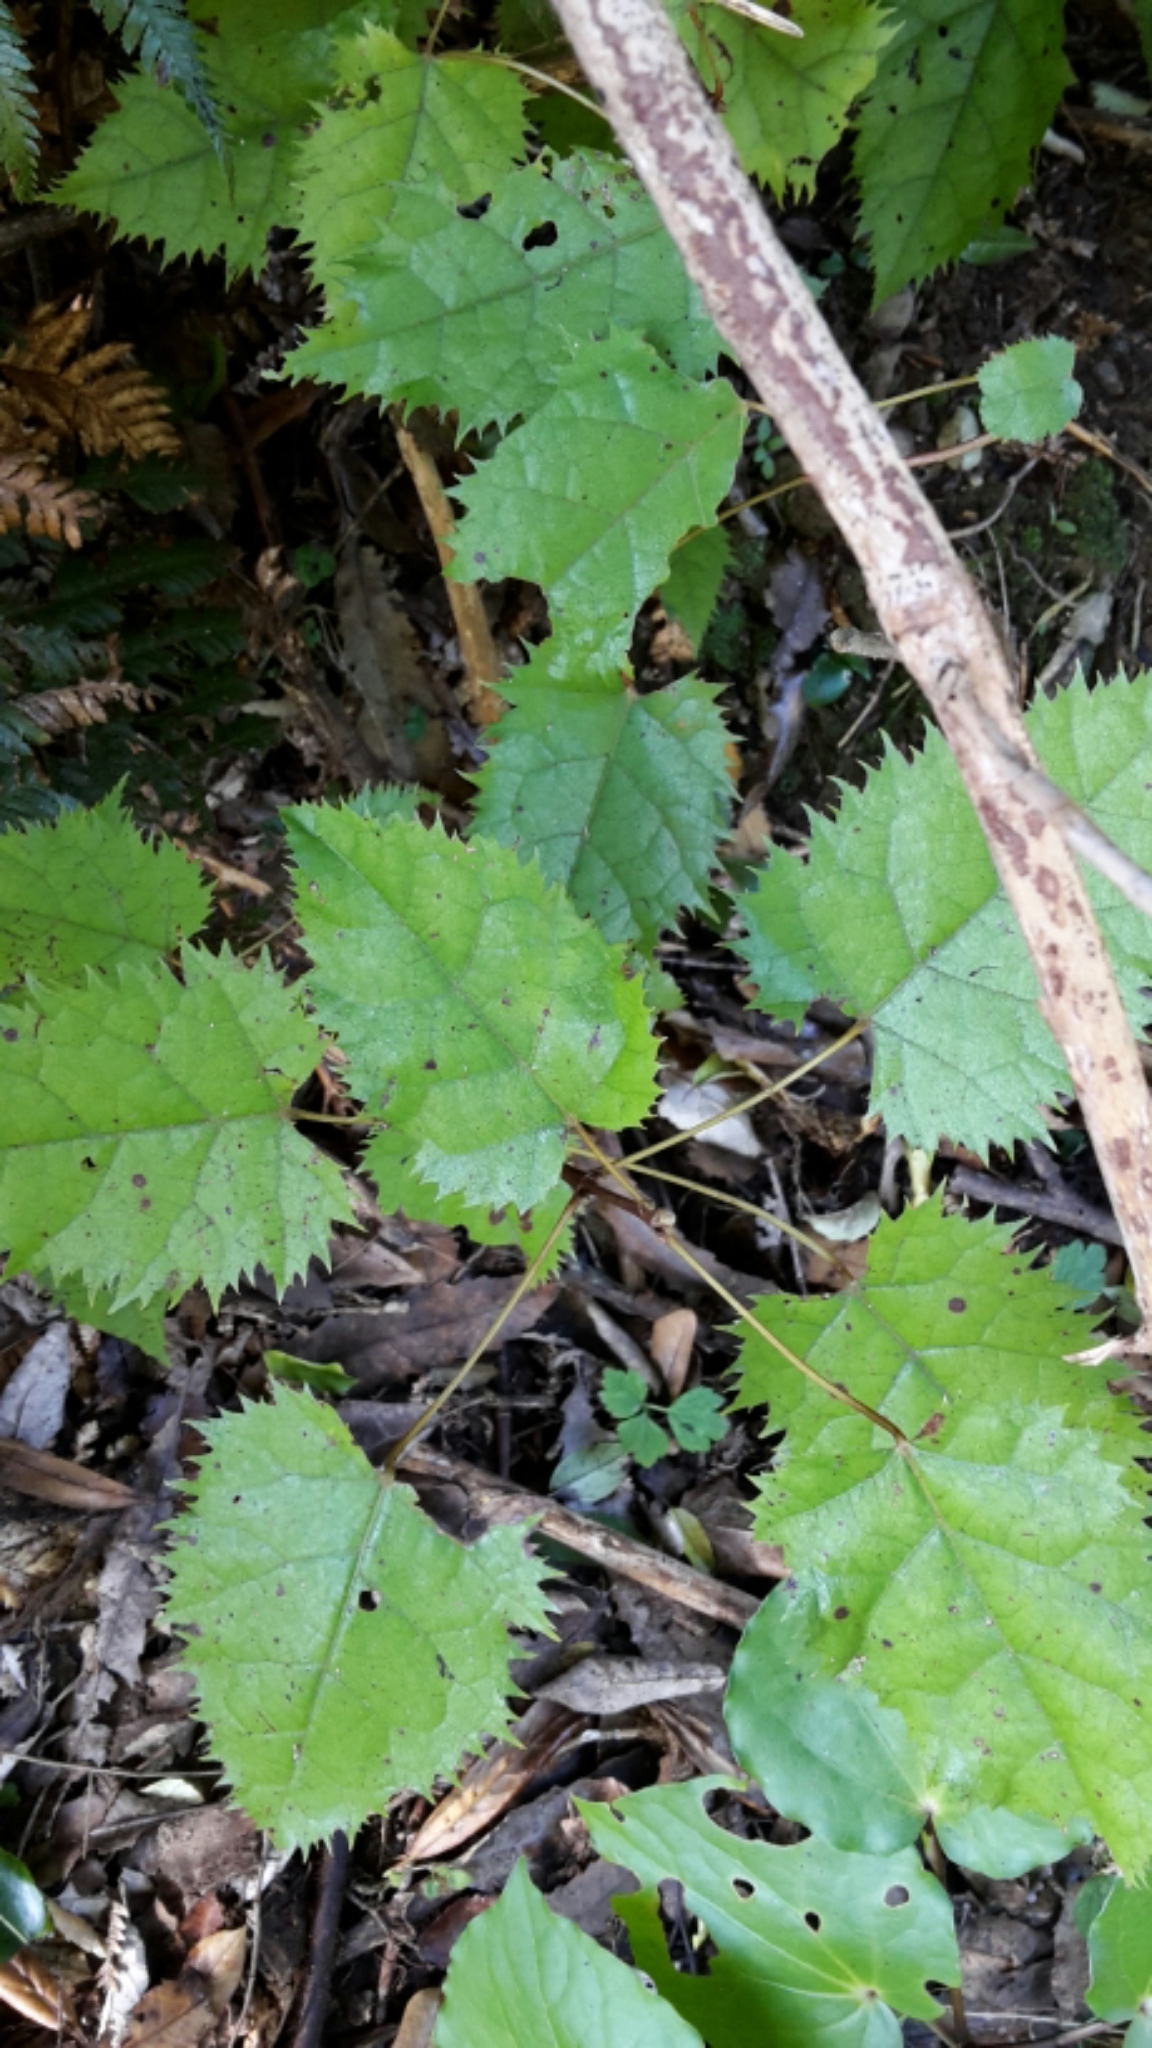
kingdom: Plantae
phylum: Tracheophyta
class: Magnoliopsida
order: Oxalidales
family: Elaeocarpaceae
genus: Aristotelia
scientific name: Aristotelia serrata
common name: New zealand wineberry
